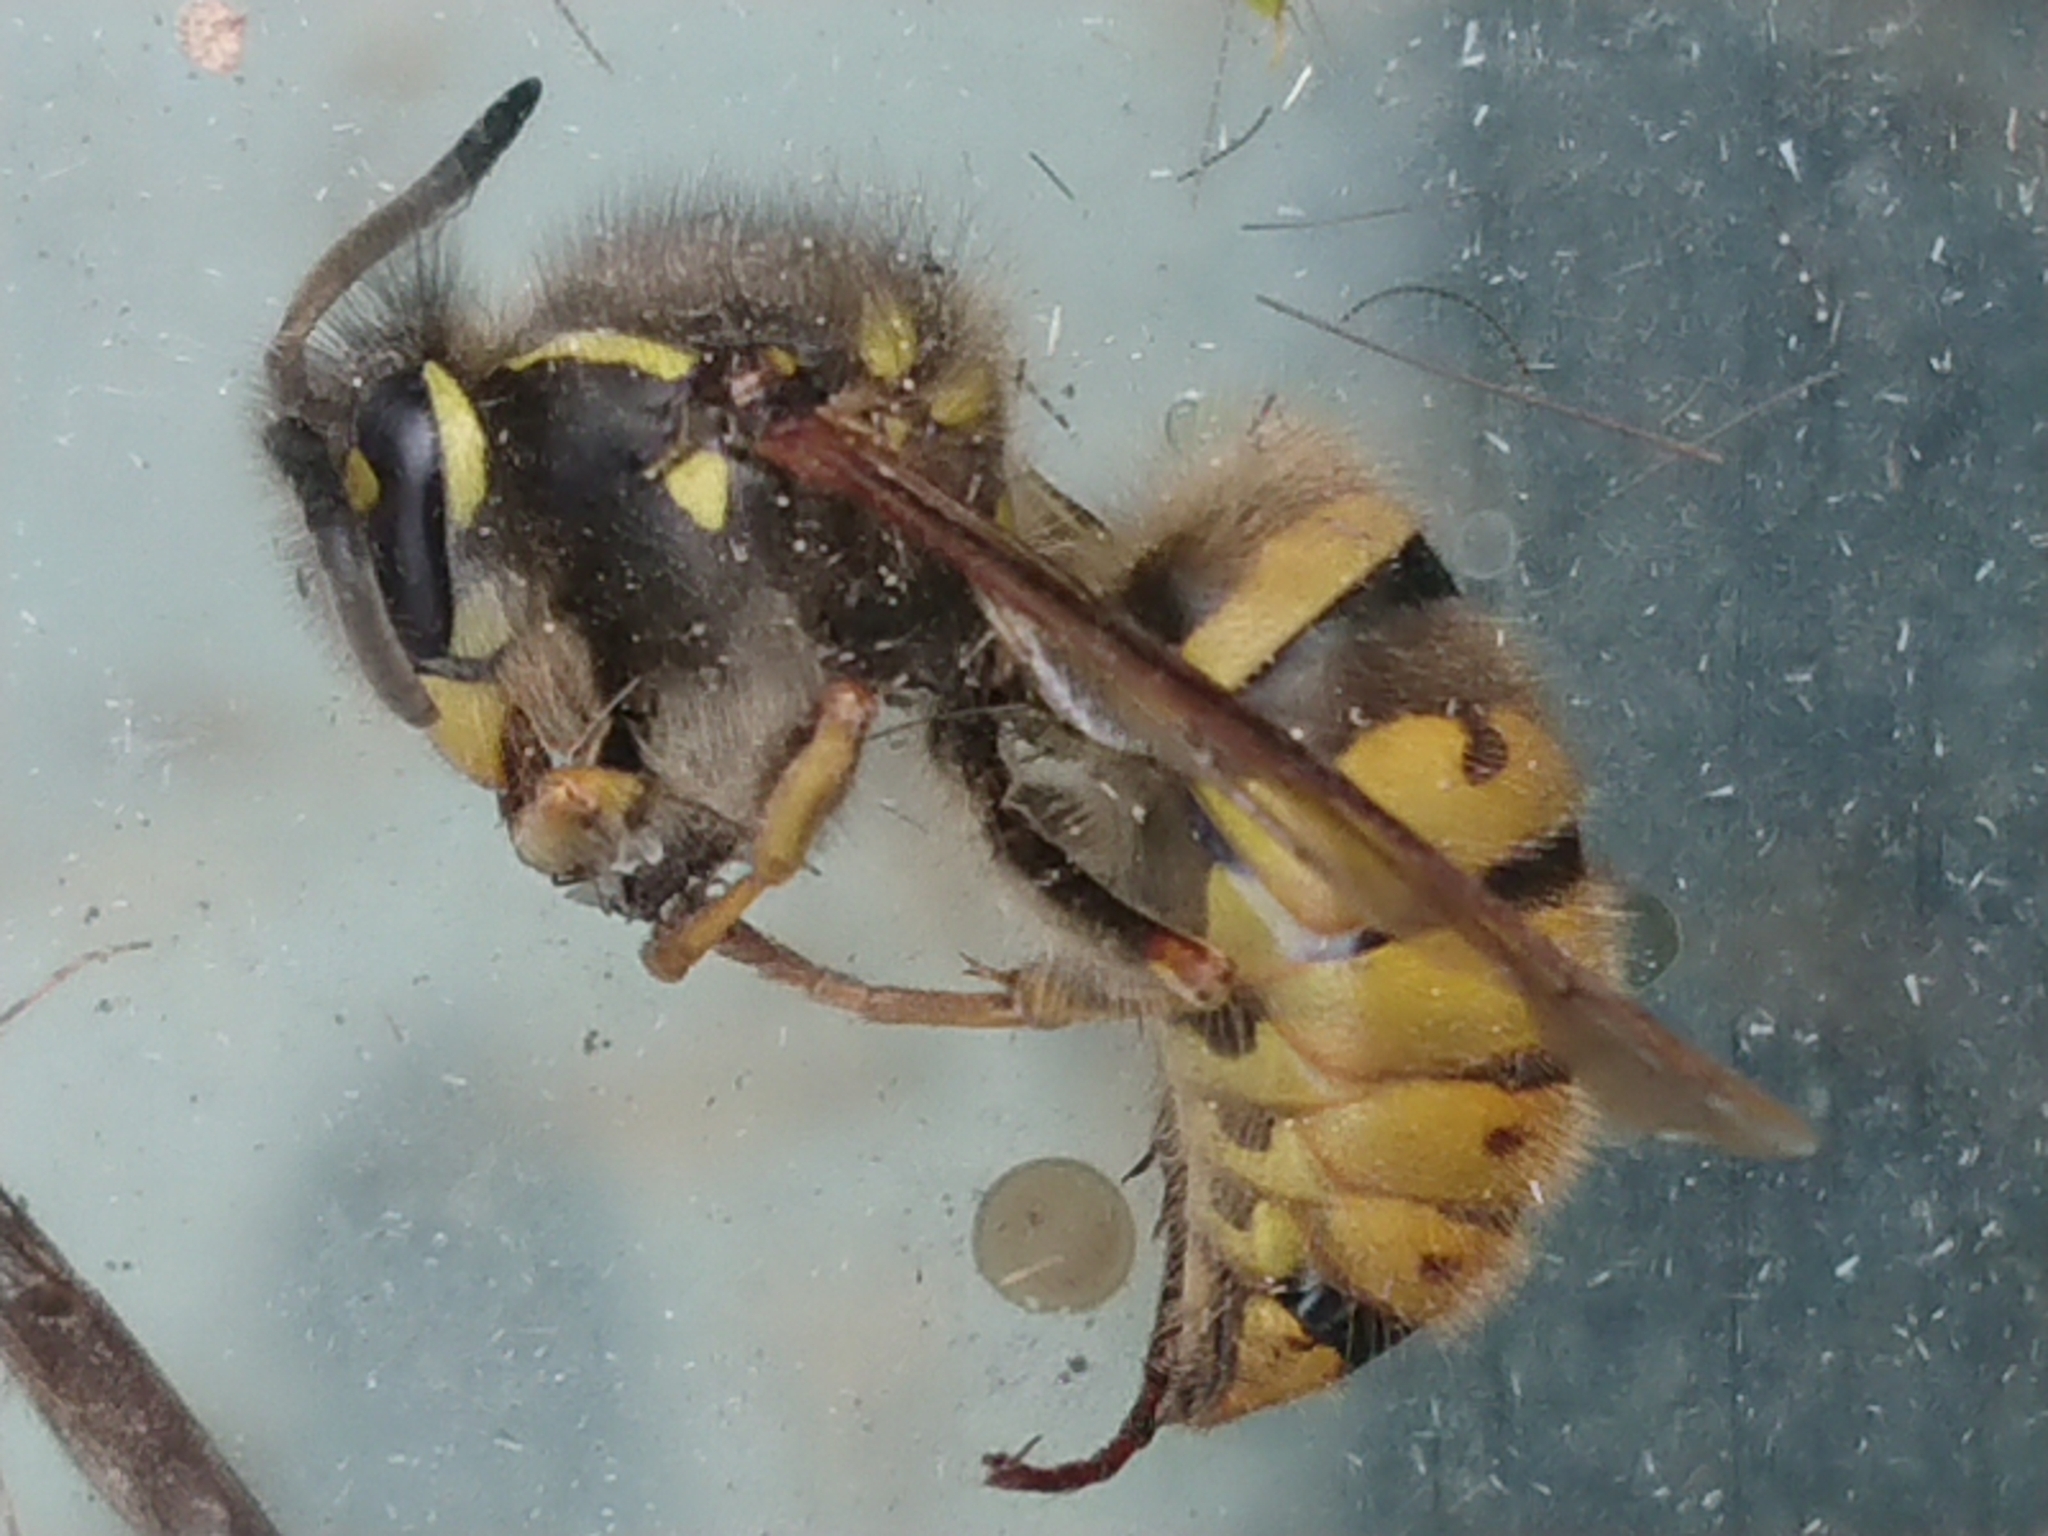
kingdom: Animalia
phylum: Arthropoda
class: Insecta
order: Hymenoptera
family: Vespidae
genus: Vespula
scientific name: Vespula vulgaris
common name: Common wasp
